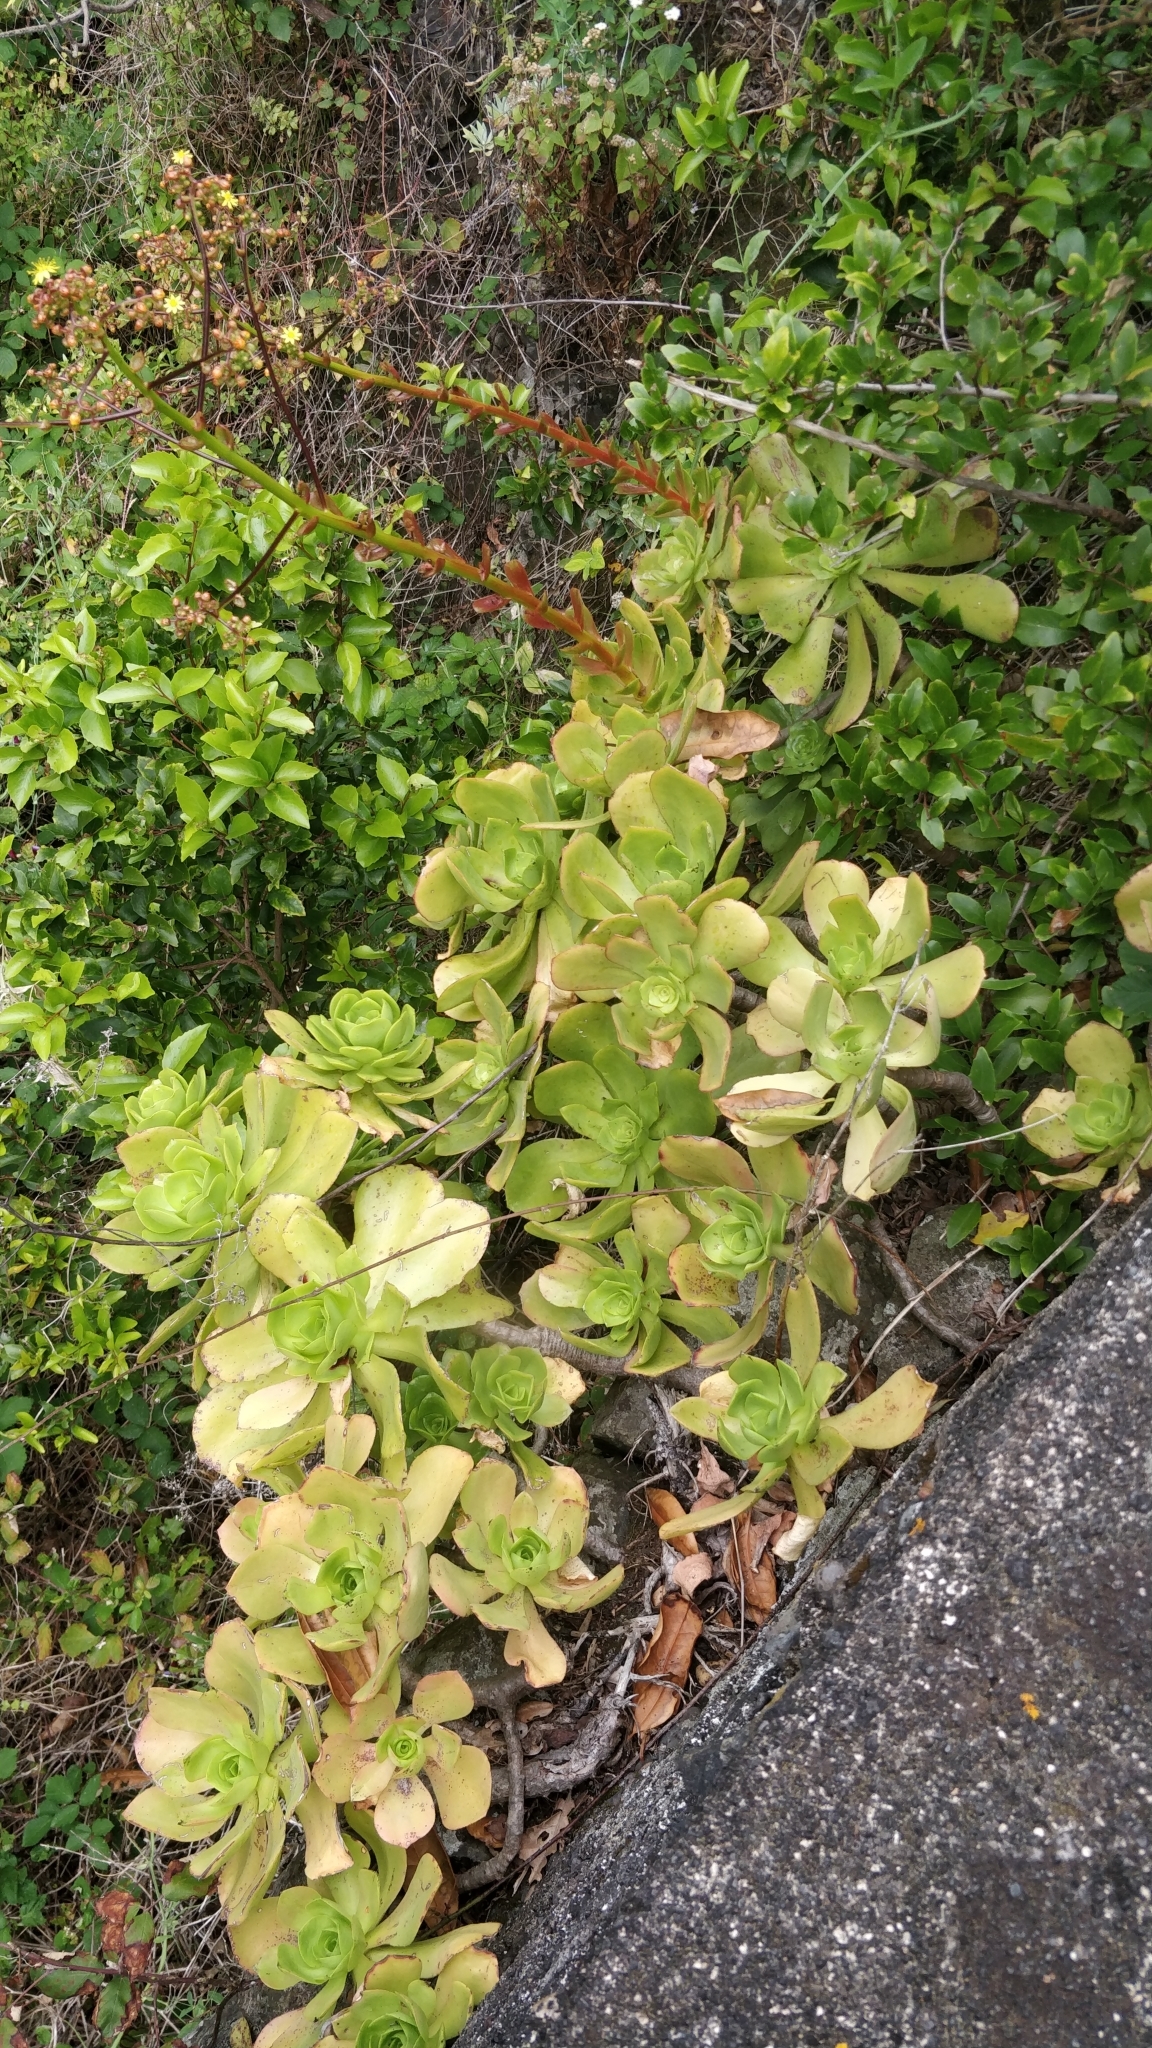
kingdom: Plantae
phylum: Tracheophyta
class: Magnoliopsida
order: Saxifragales
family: Crassulaceae
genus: Aeonium
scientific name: Aeonium glutinosum
